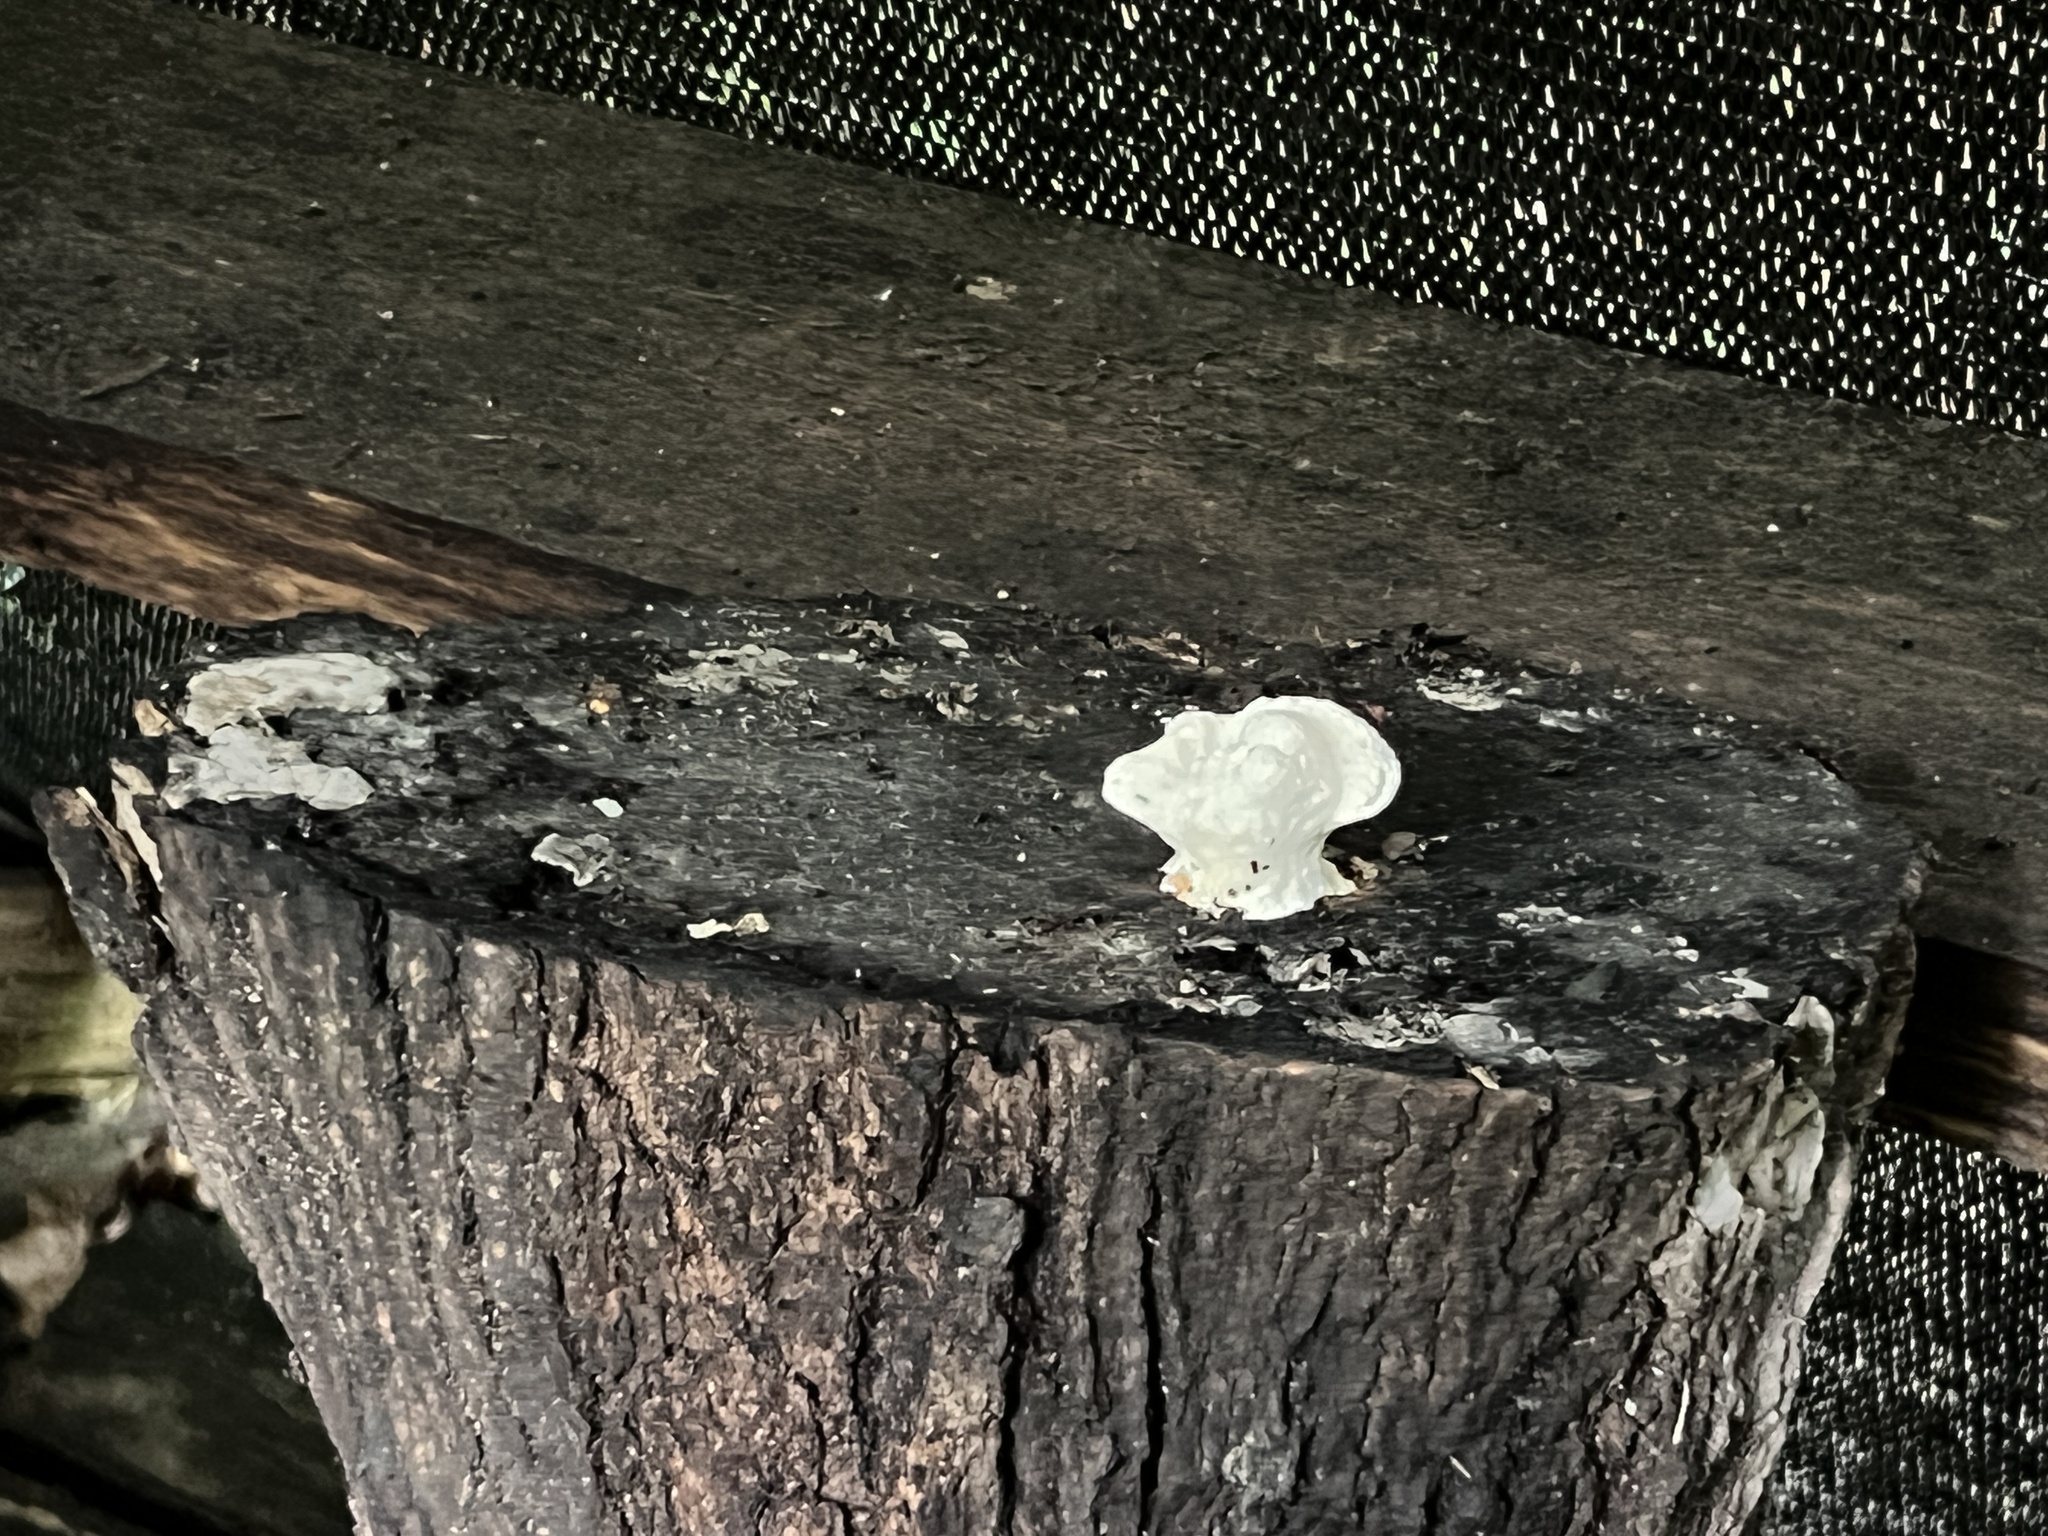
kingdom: Fungi
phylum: Basidiomycota
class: Agaricomycetes
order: Polyporales
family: Polyporaceae
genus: Trametes
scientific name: Trametes
